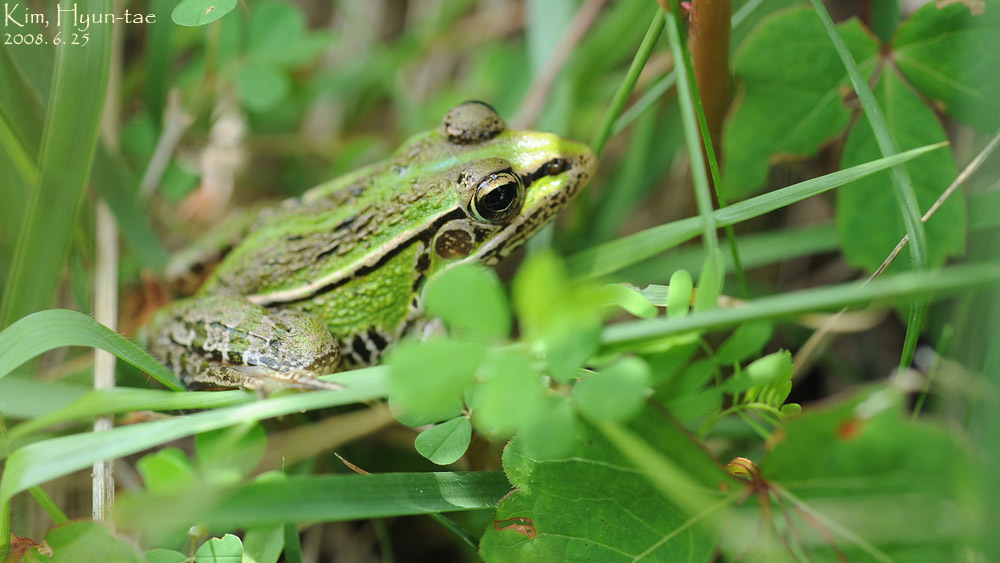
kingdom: Animalia
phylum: Chordata
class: Amphibia
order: Anura
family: Ranidae
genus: Pelophylax
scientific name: Pelophylax nigromaculatus
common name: Black-spotted pond frog
